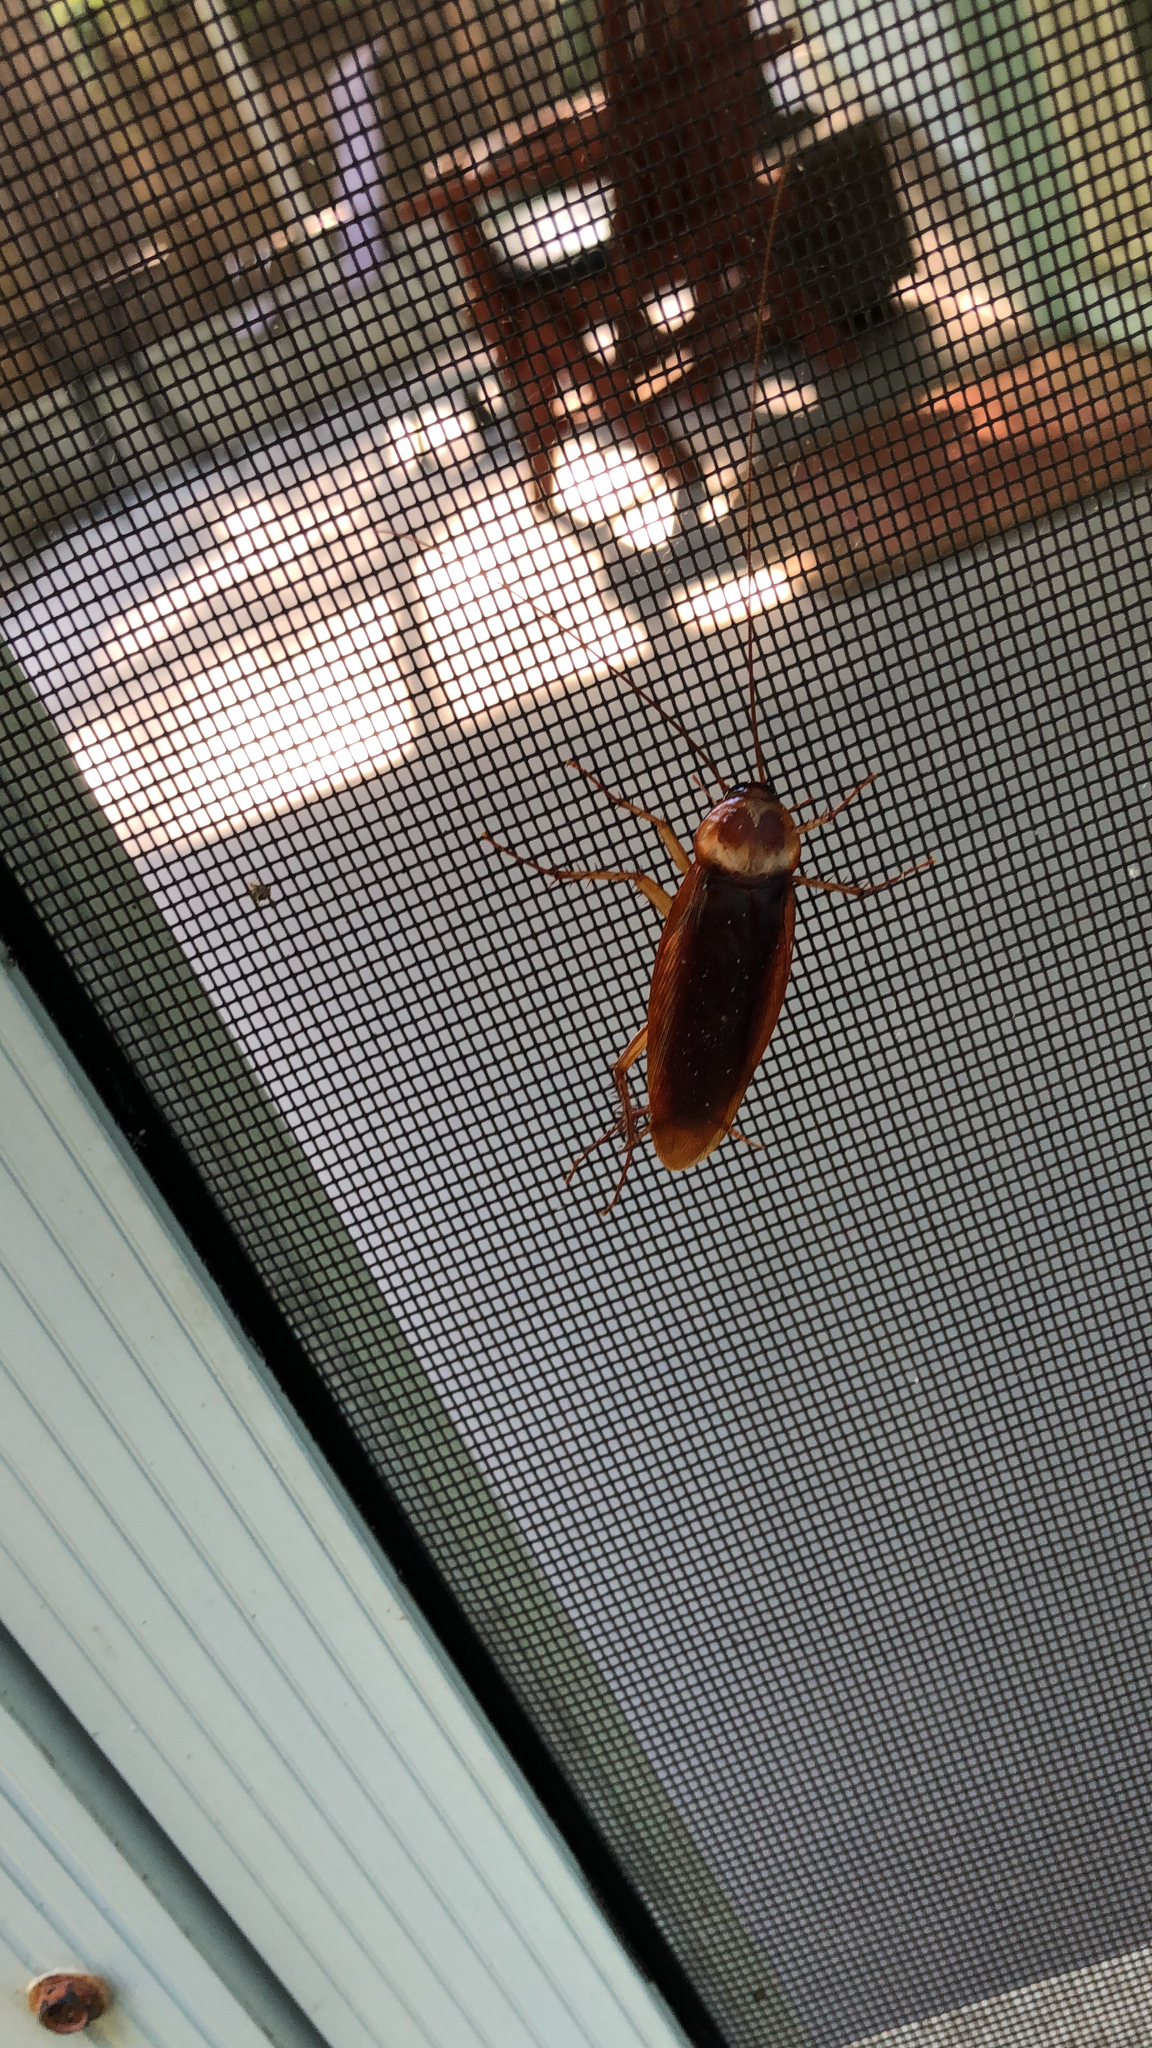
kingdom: Animalia
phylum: Arthropoda
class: Insecta
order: Blattodea
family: Blattidae
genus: Periplaneta
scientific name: Periplaneta americana
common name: American cockroach
